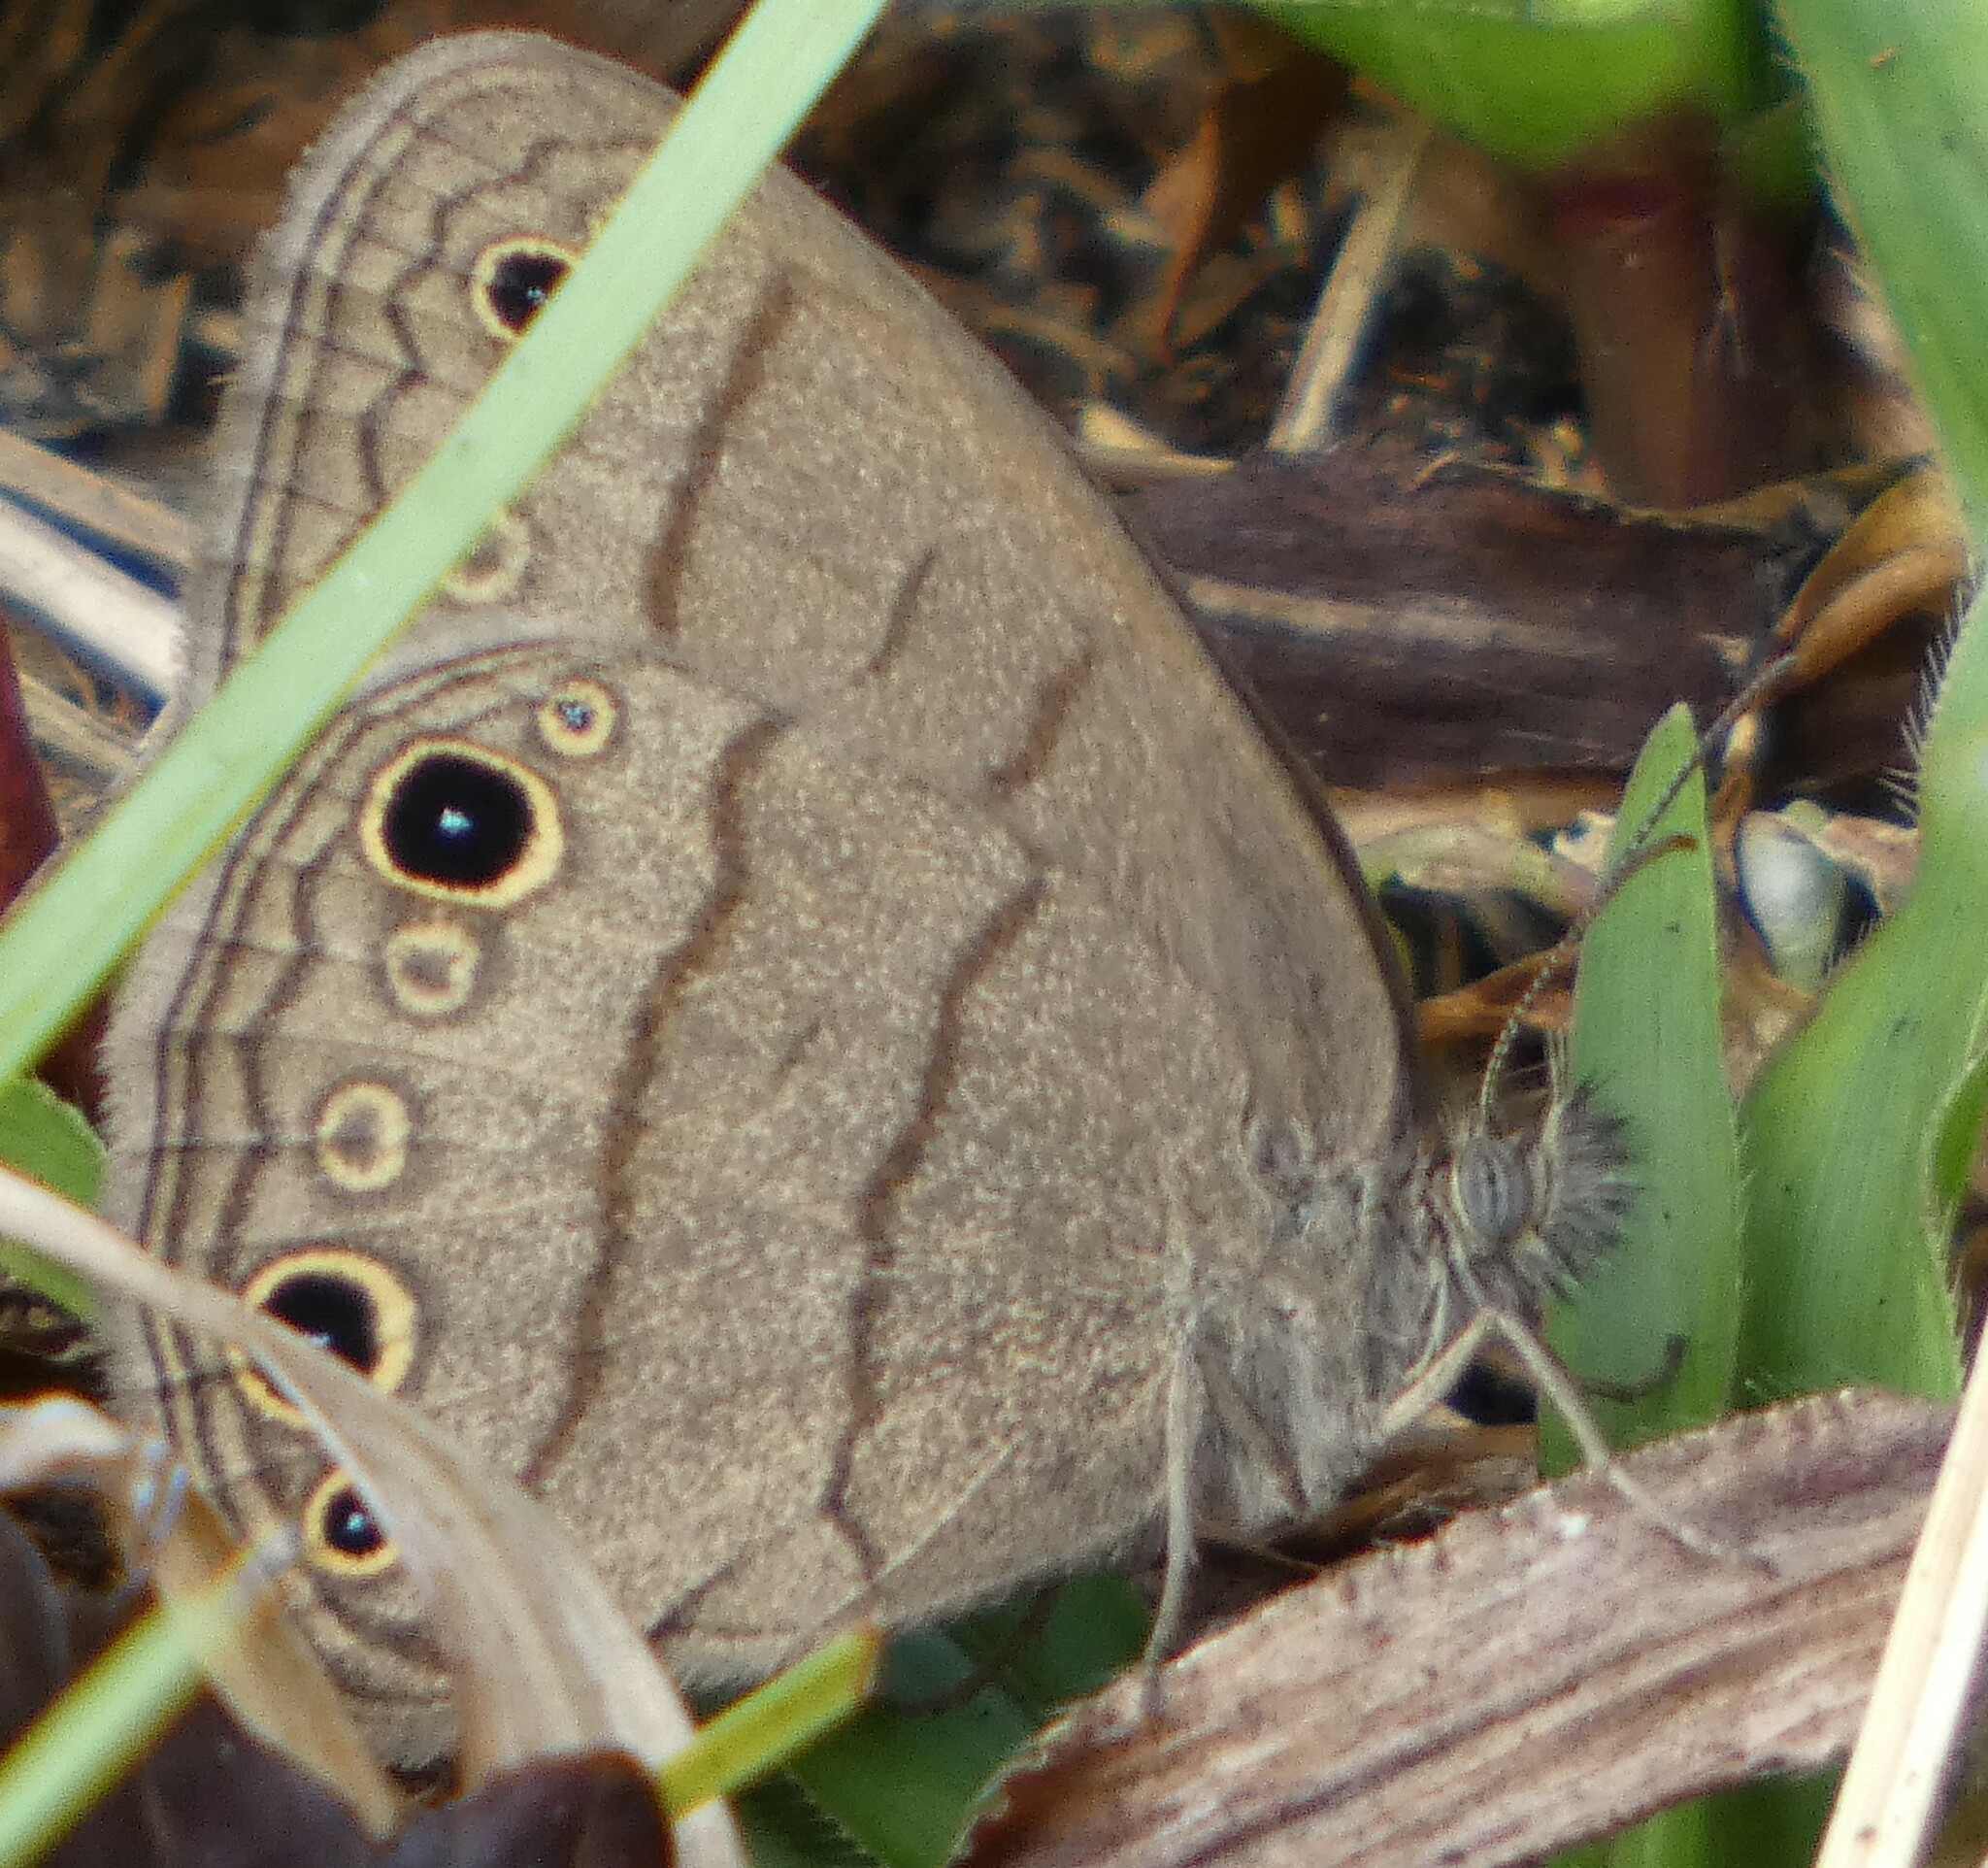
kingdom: Animalia
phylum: Arthropoda
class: Insecta
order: Lepidoptera
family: Nymphalidae
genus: Hermeuptychia
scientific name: Hermeuptychia hermes
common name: Hermes satyr
